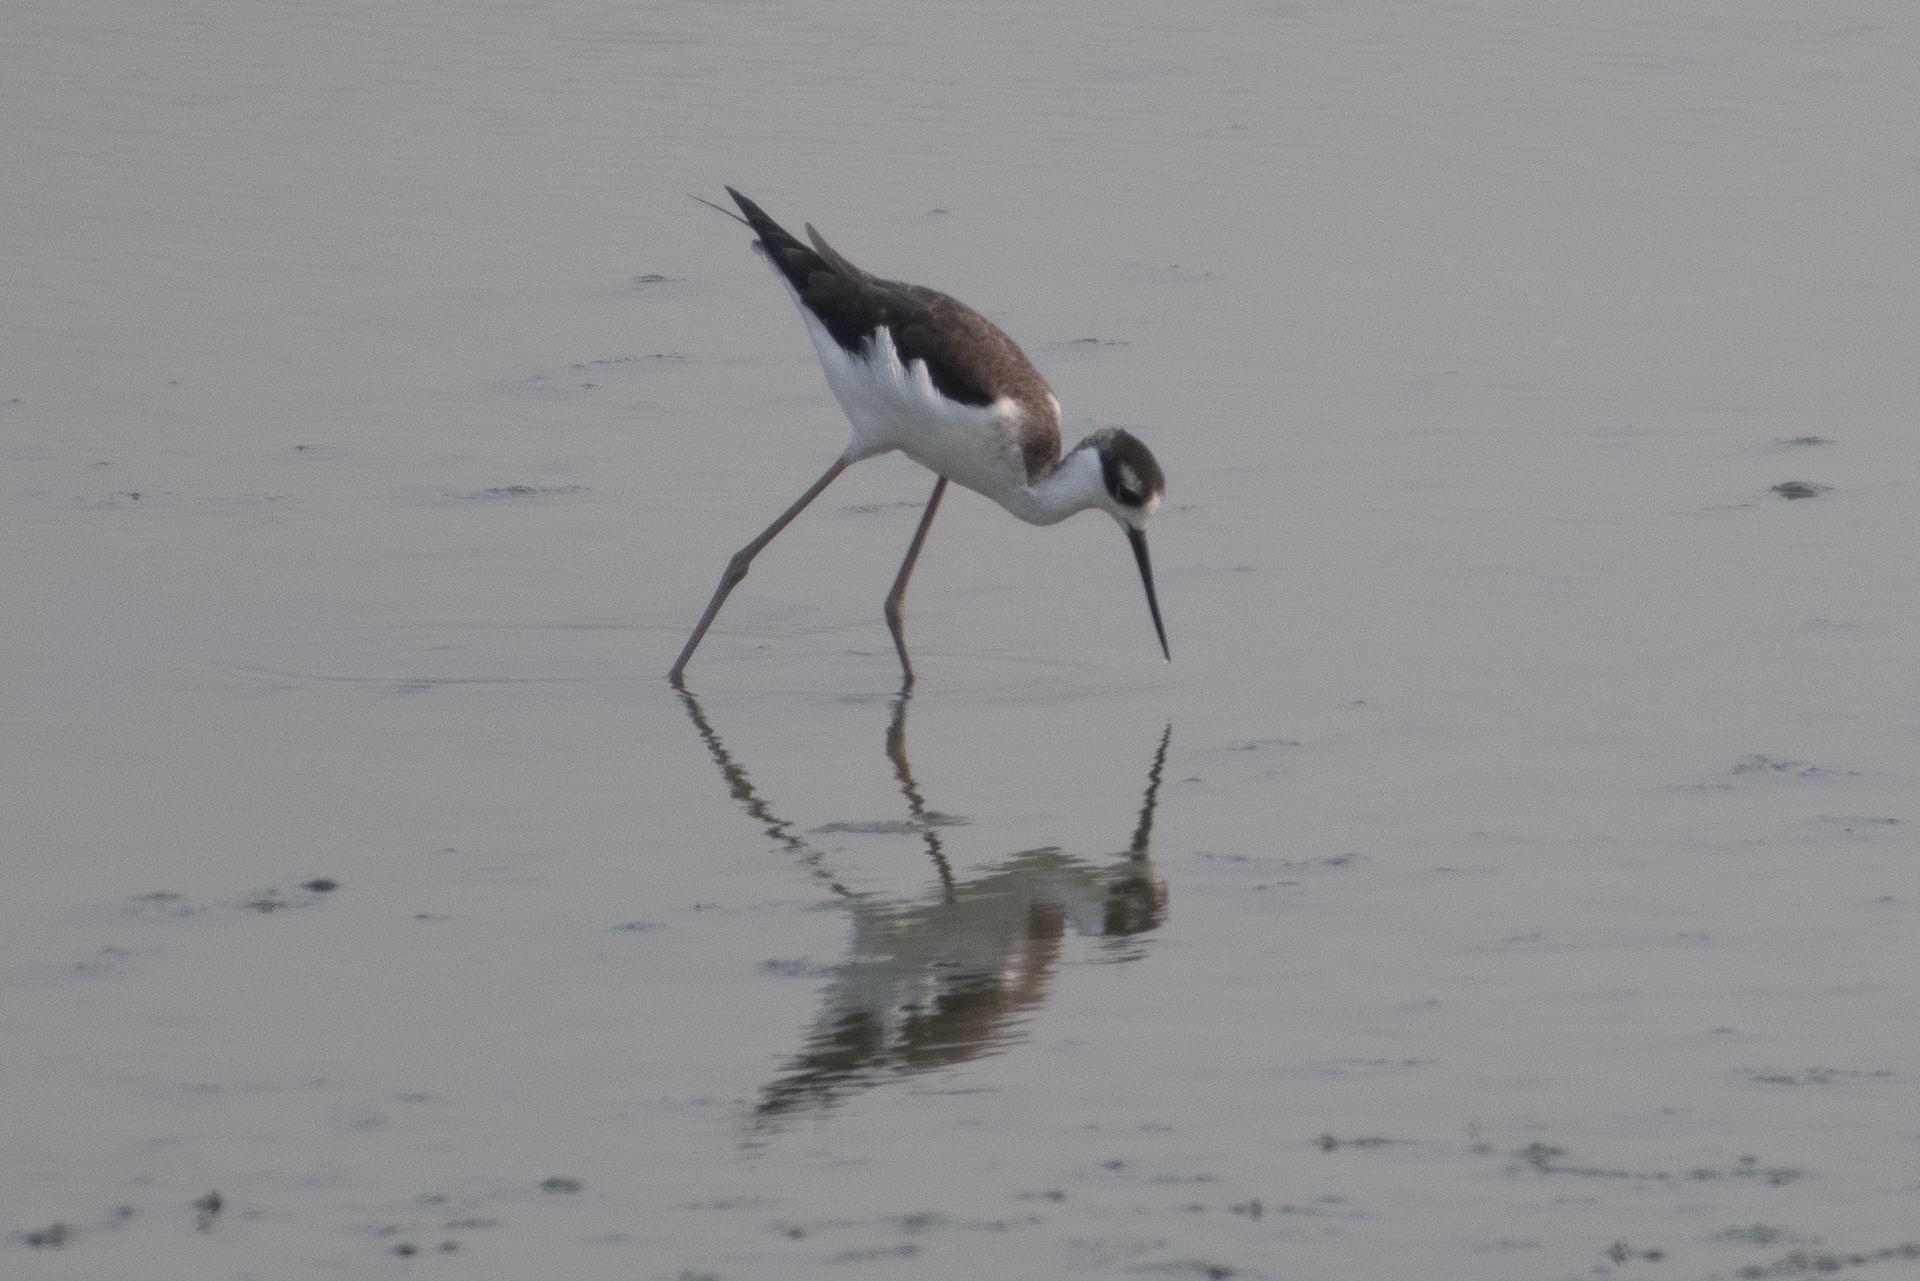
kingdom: Animalia
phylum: Chordata
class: Aves
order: Charadriiformes
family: Recurvirostridae
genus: Himantopus
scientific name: Himantopus mexicanus
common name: Black-necked stilt
